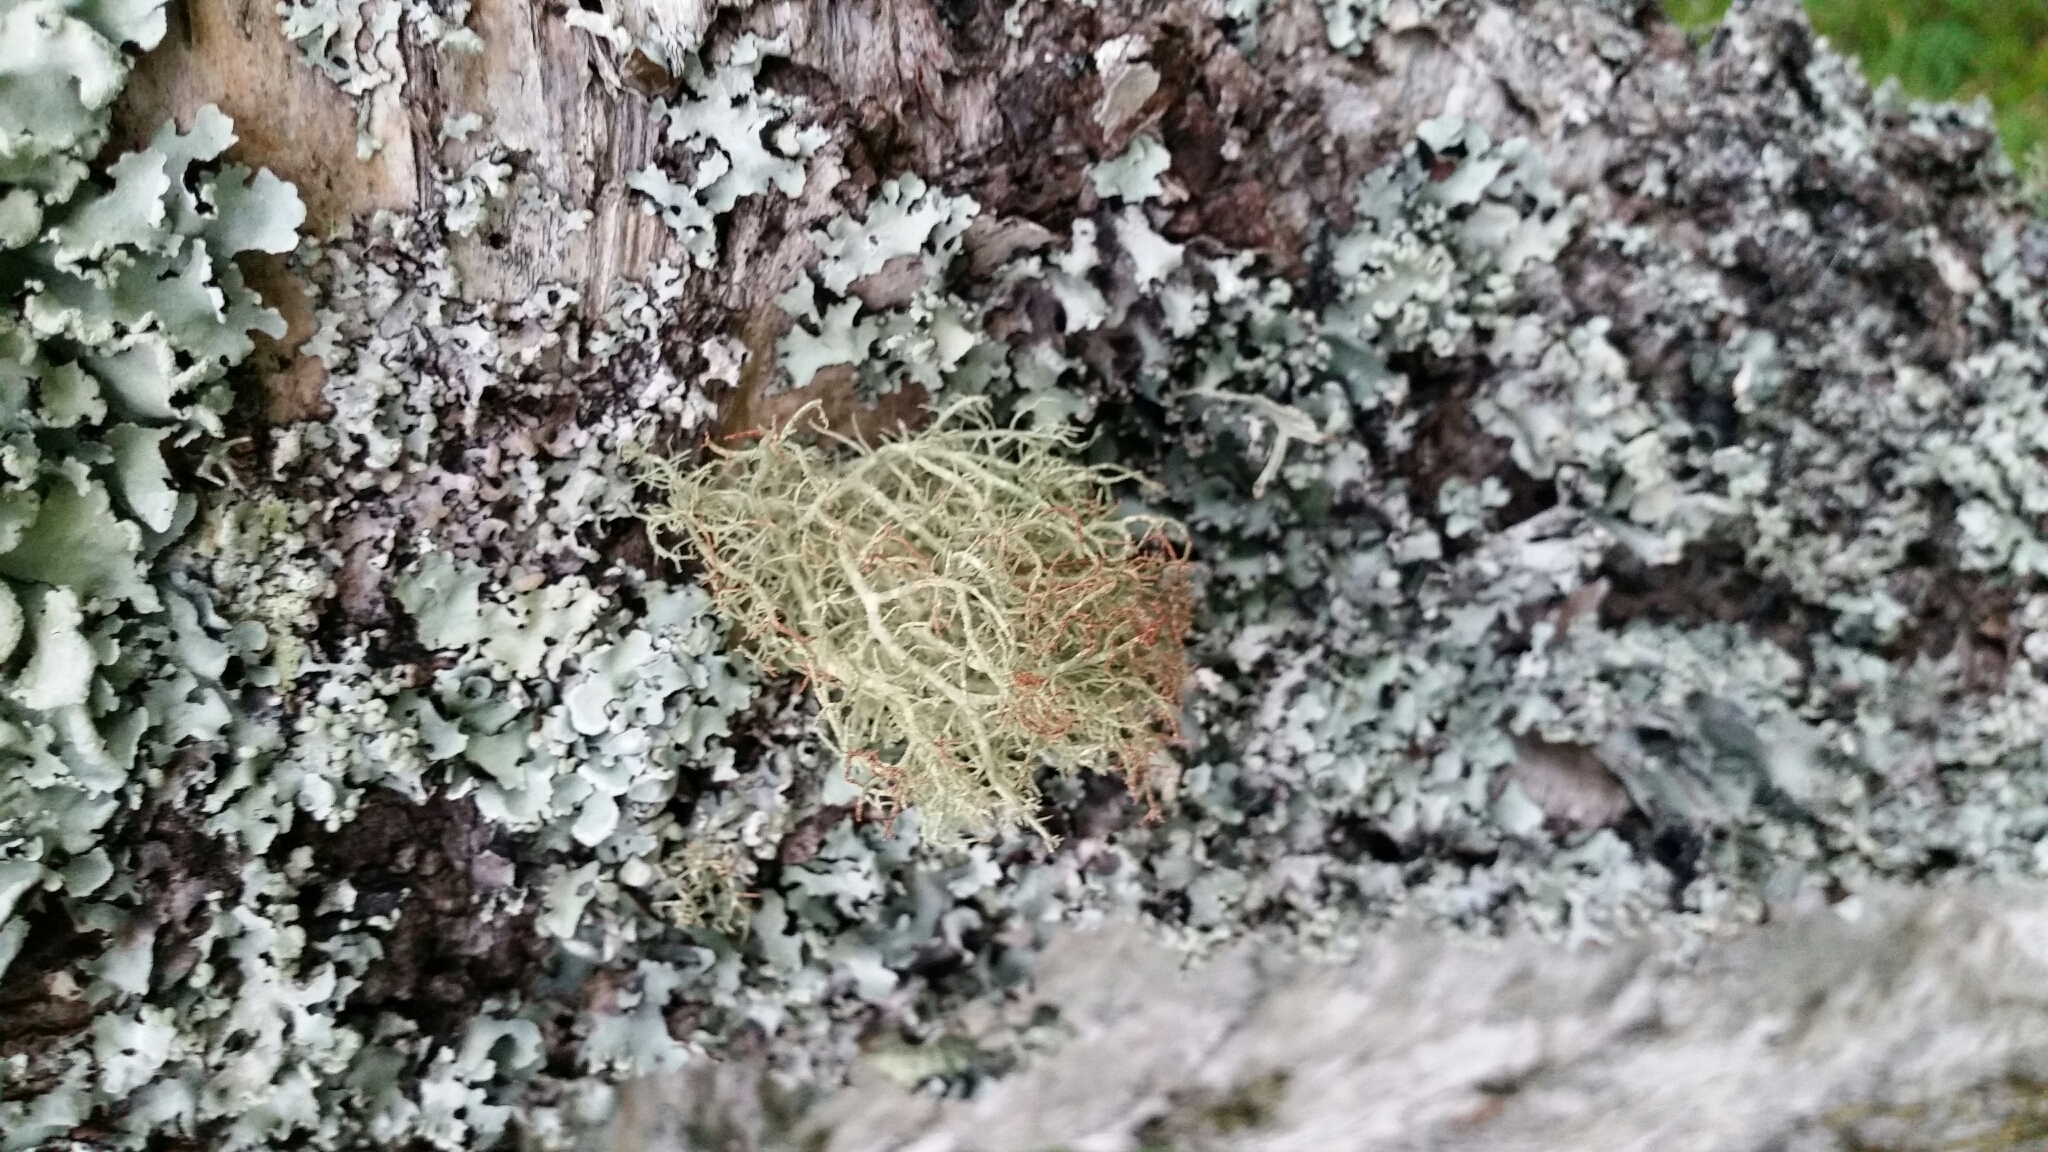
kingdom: Fungi
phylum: Ascomycota
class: Lecanoromycetes
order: Lecanorales
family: Parmeliaceae
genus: Parmotrema
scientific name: Parmotrema reticulatum
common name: Black sheet lichen
